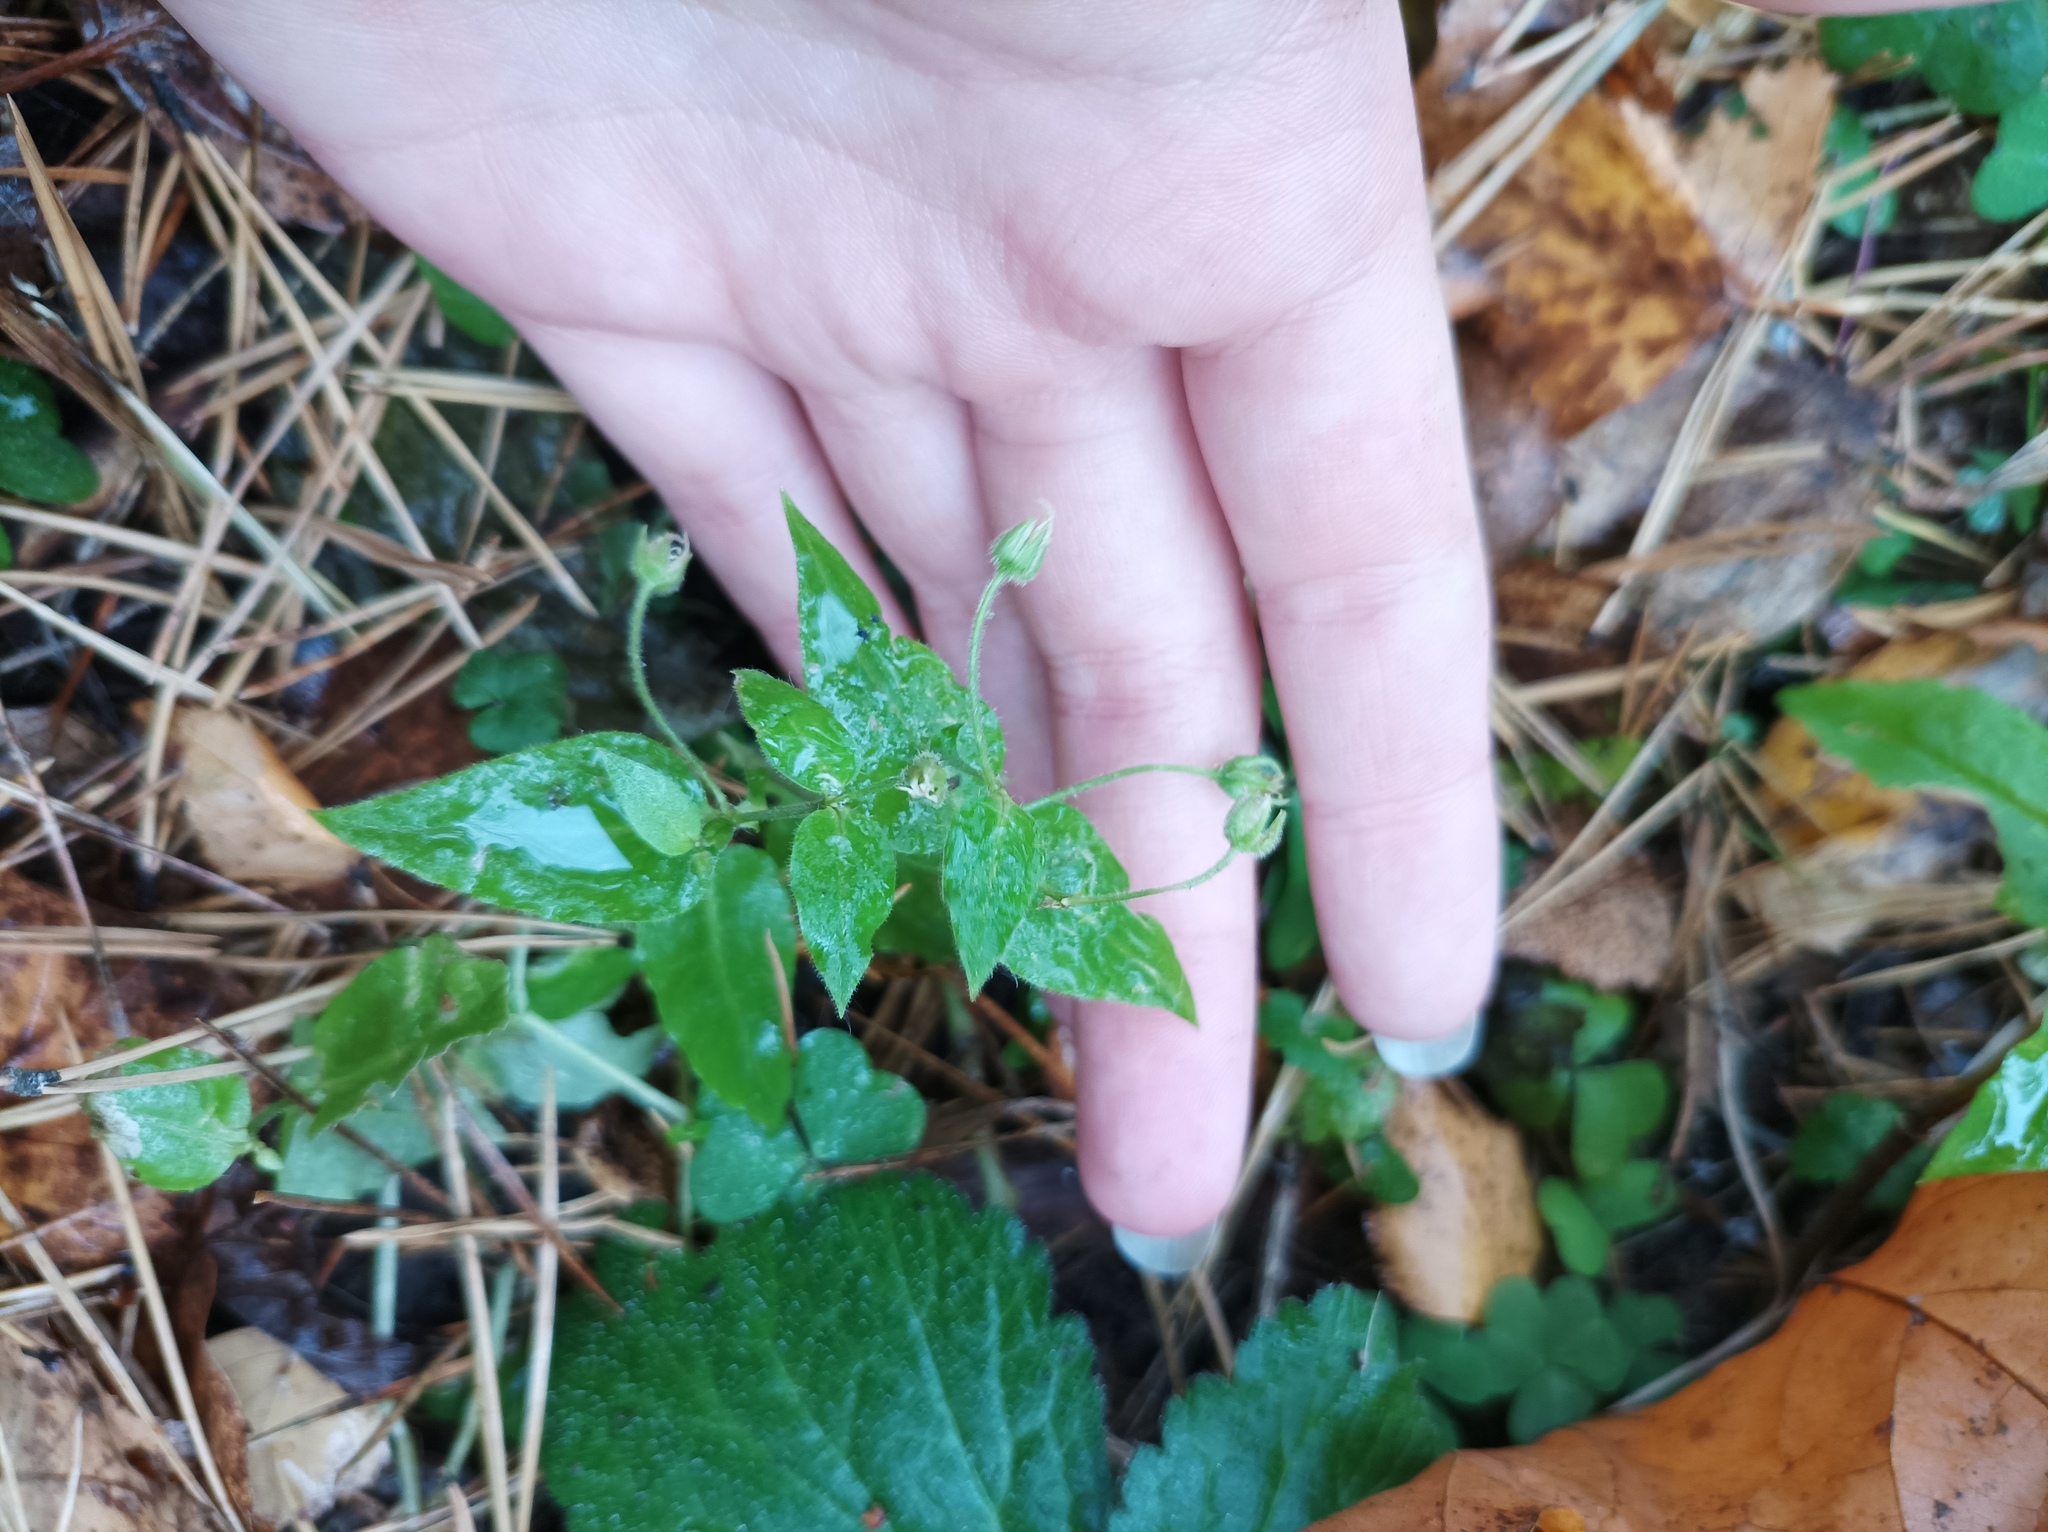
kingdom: Plantae
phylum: Tracheophyta
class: Magnoliopsida
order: Caryophyllales
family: Caryophyllaceae
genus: Stellaria
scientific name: Stellaria aquatica
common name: Water chickweed
